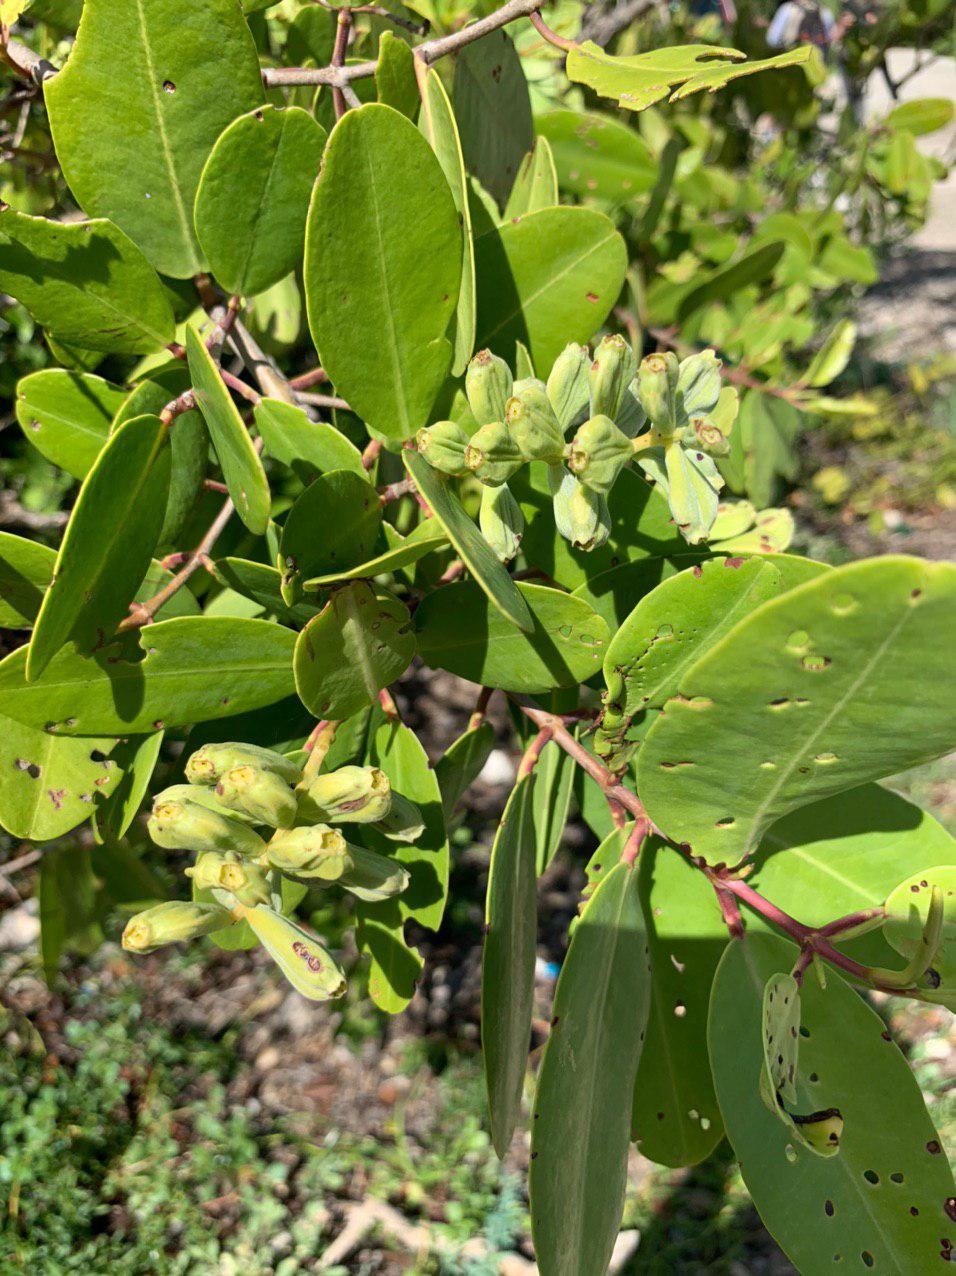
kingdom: Plantae
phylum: Tracheophyta
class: Magnoliopsida
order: Myrtales
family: Combretaceae
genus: Laguncularia
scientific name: Laguncularia racemosa
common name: White mangrove
